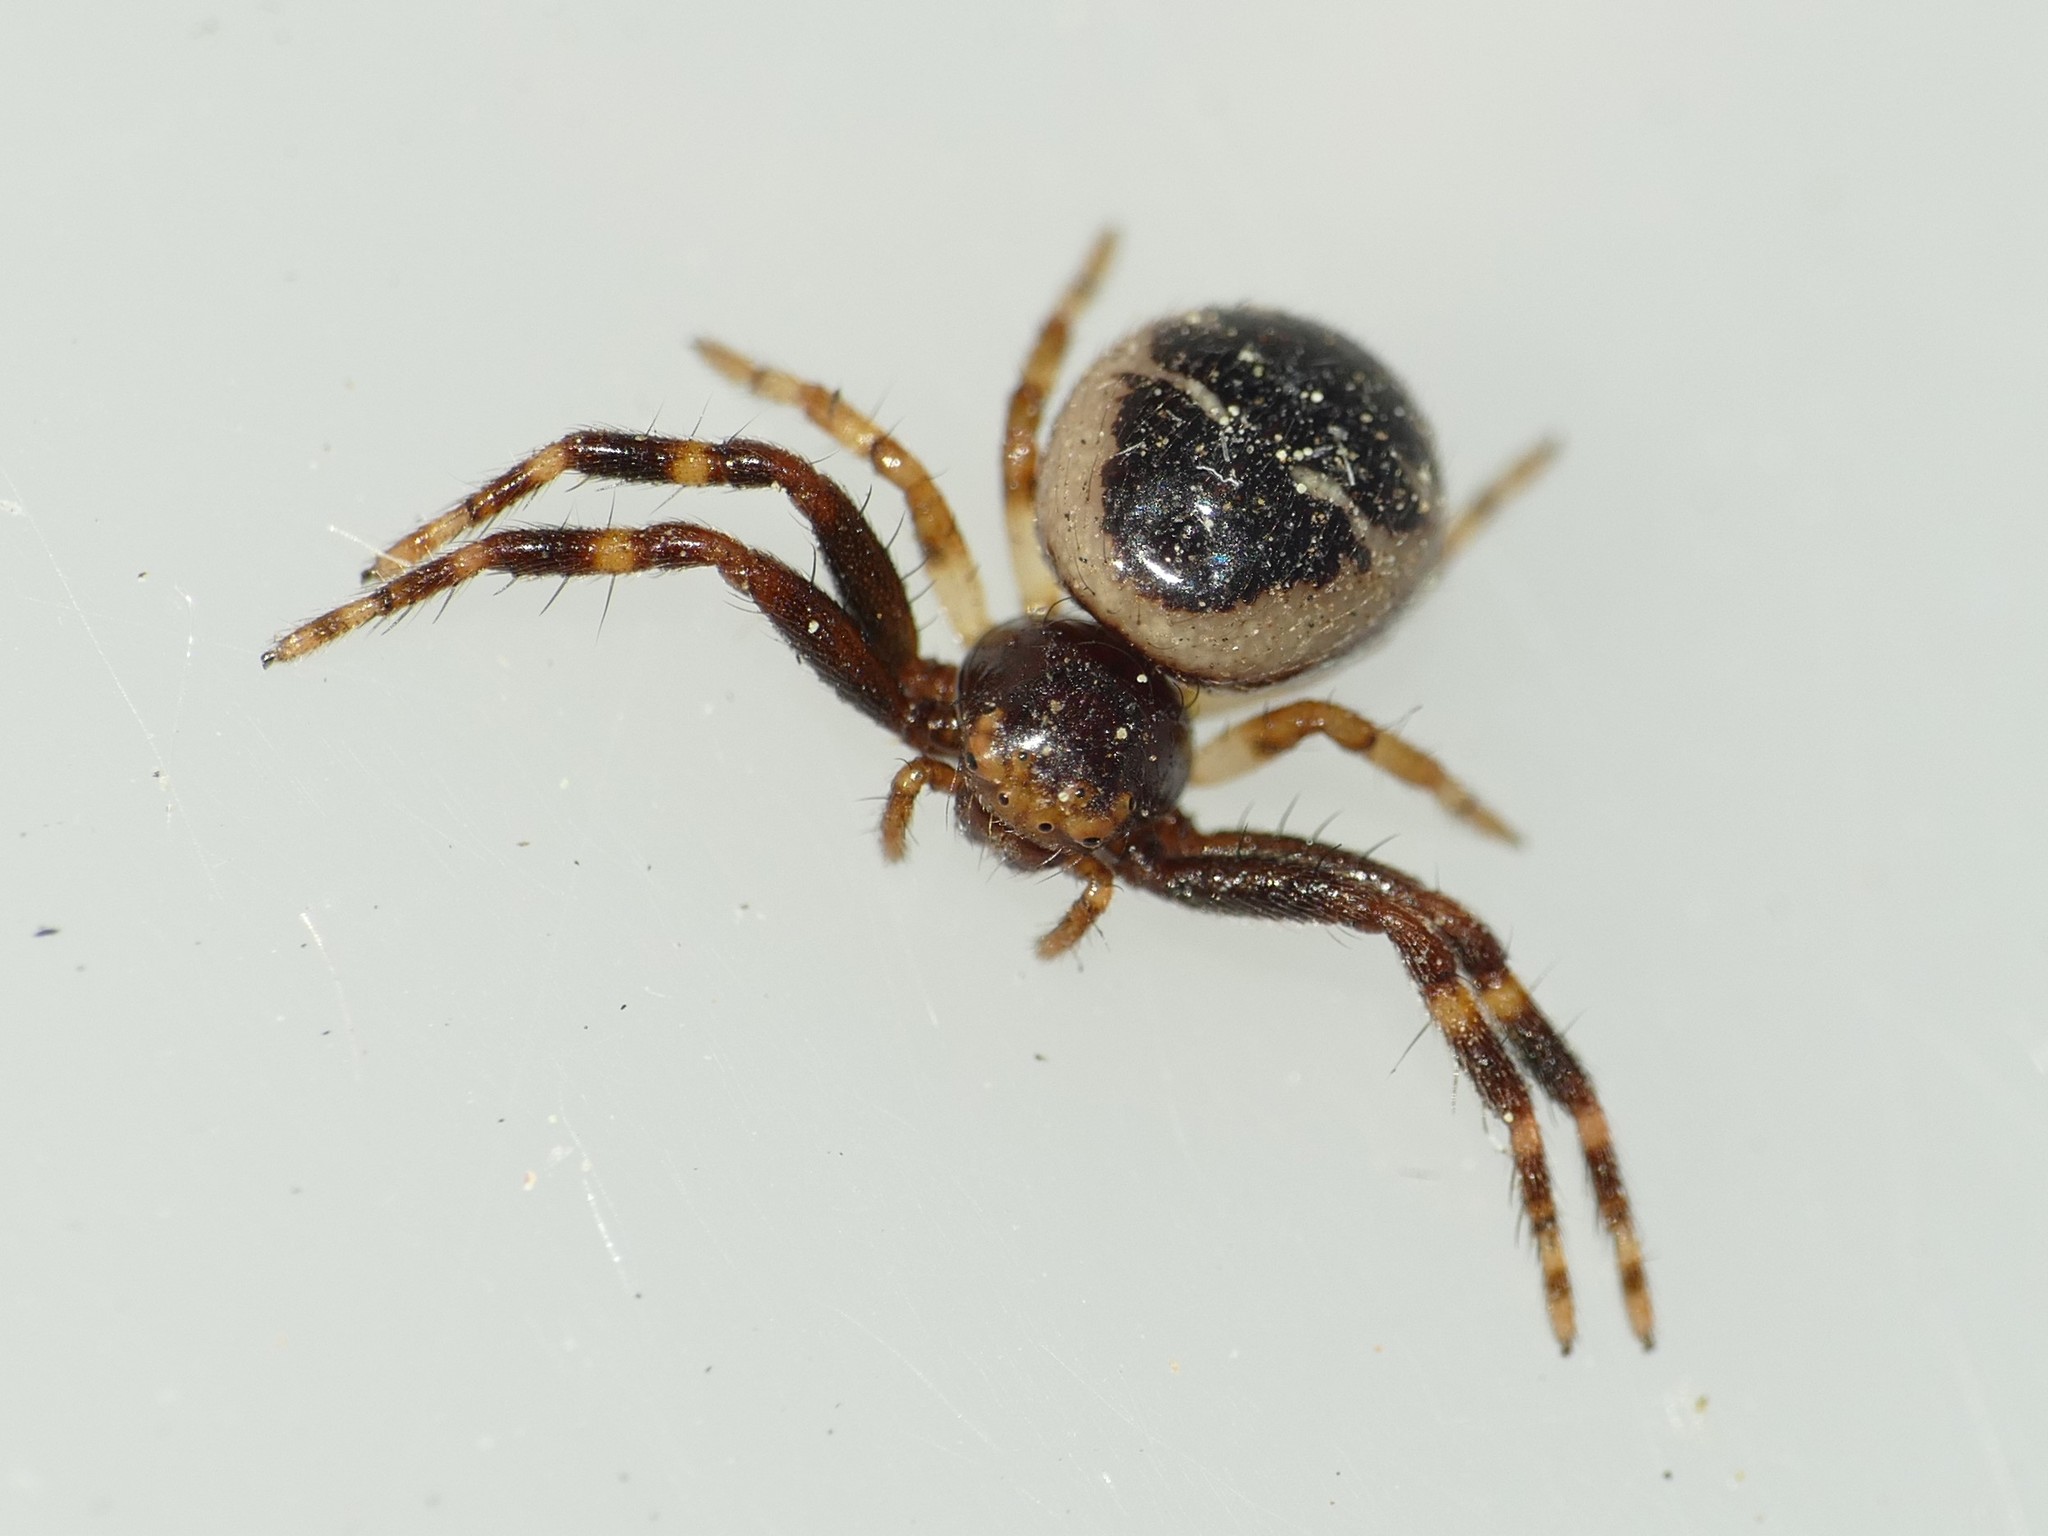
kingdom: Animalia
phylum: Arthropoda
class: Arachnida
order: Araneae
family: Thomisidae
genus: Synema
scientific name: Synema globosum
